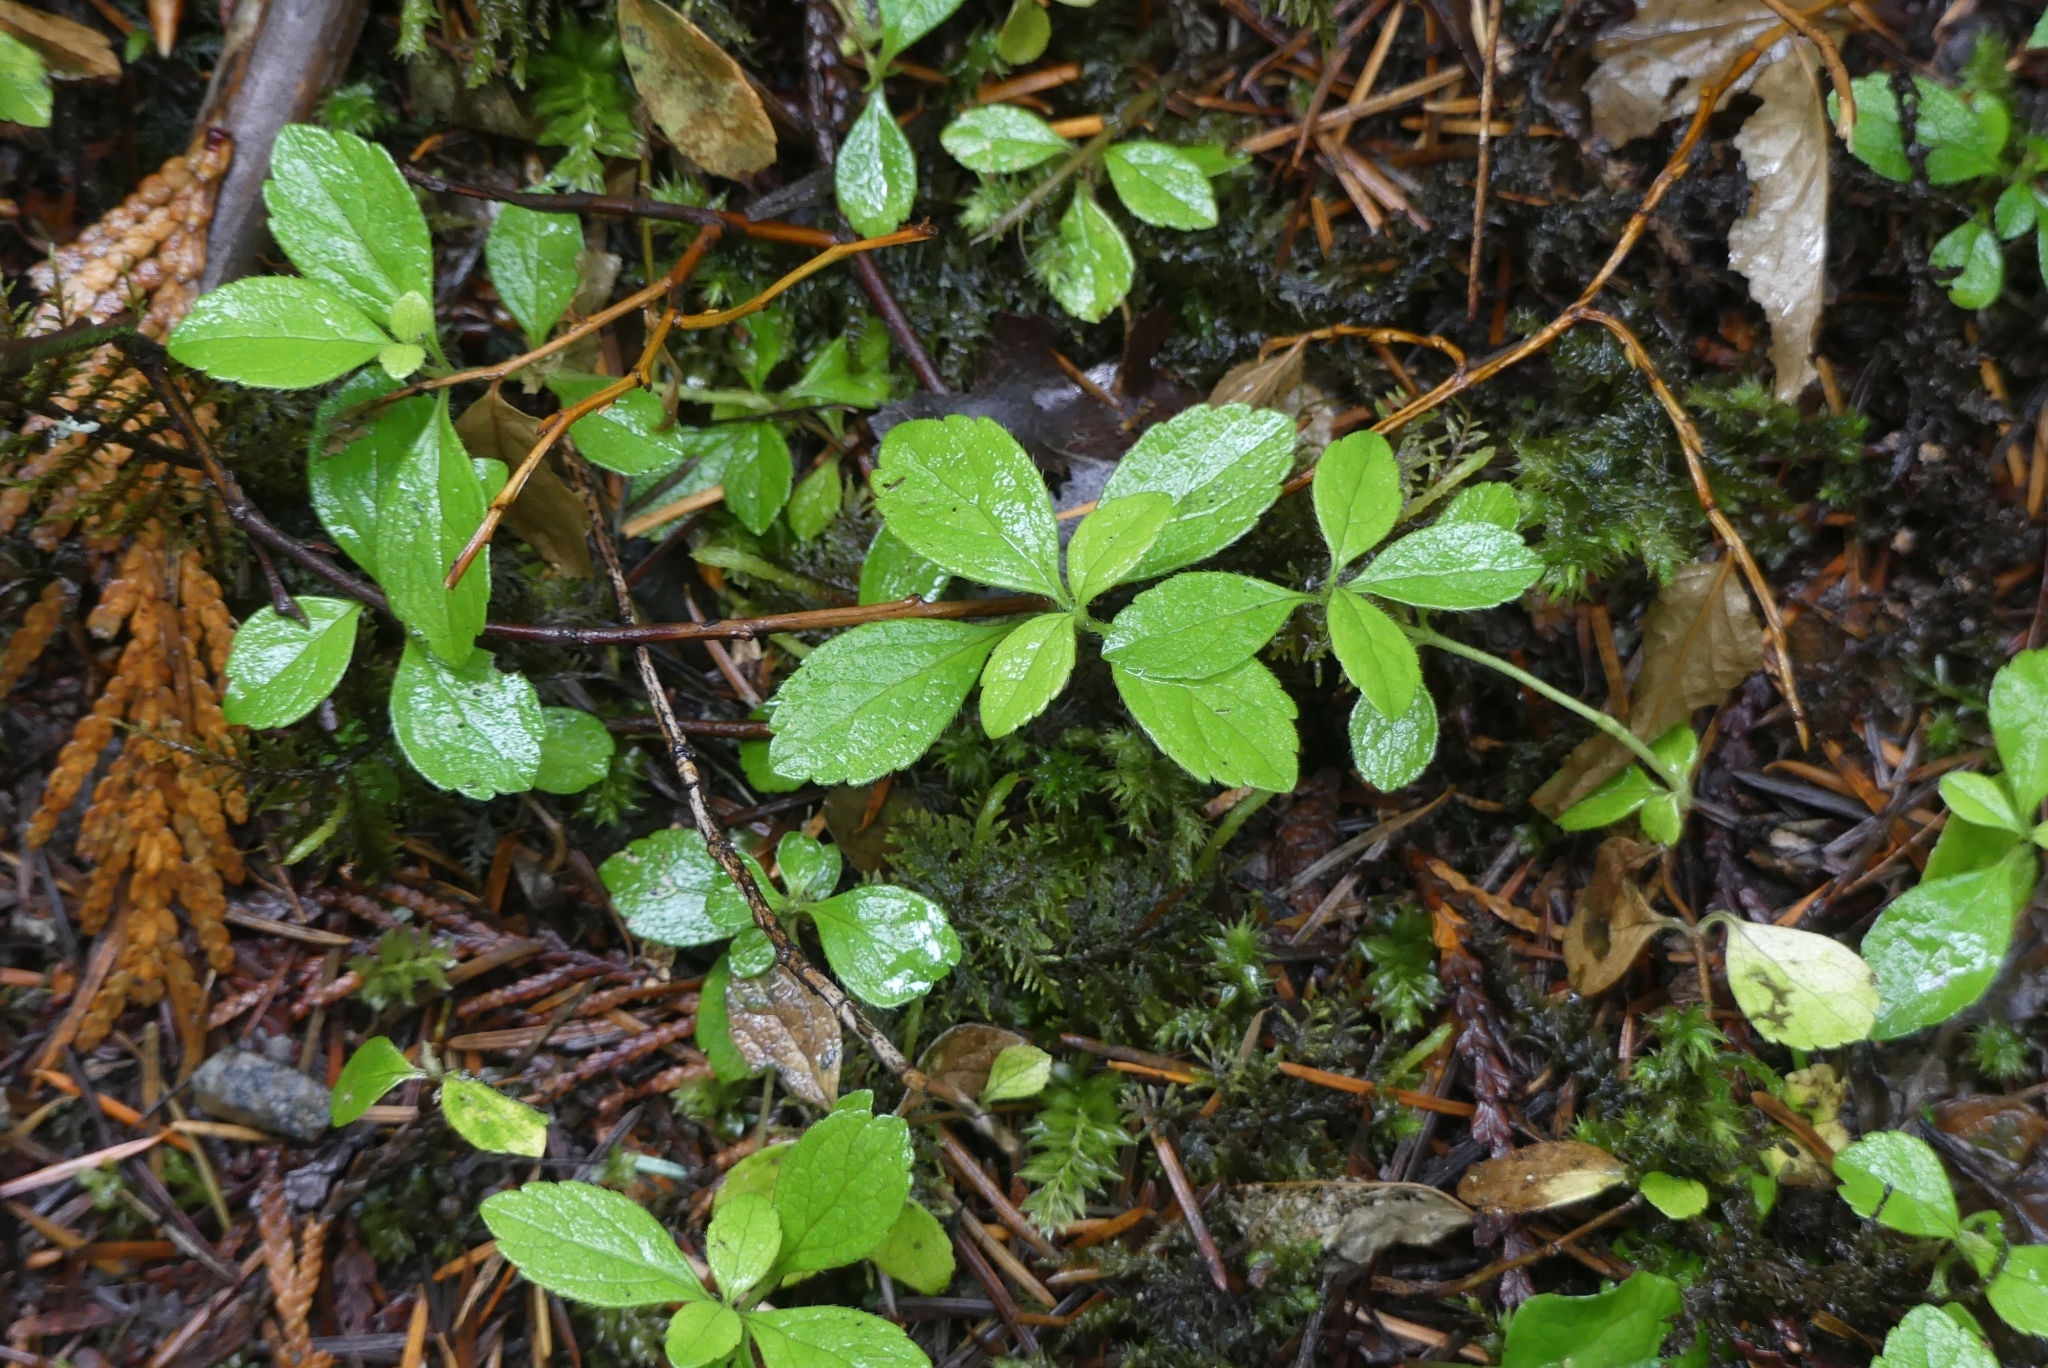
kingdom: Plantae
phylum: Tracheophyta
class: Magnoliopsida
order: Dipsacales
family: Caprifoliaceae
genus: Linnaea
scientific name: Linnaea borealis
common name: Twinflower
